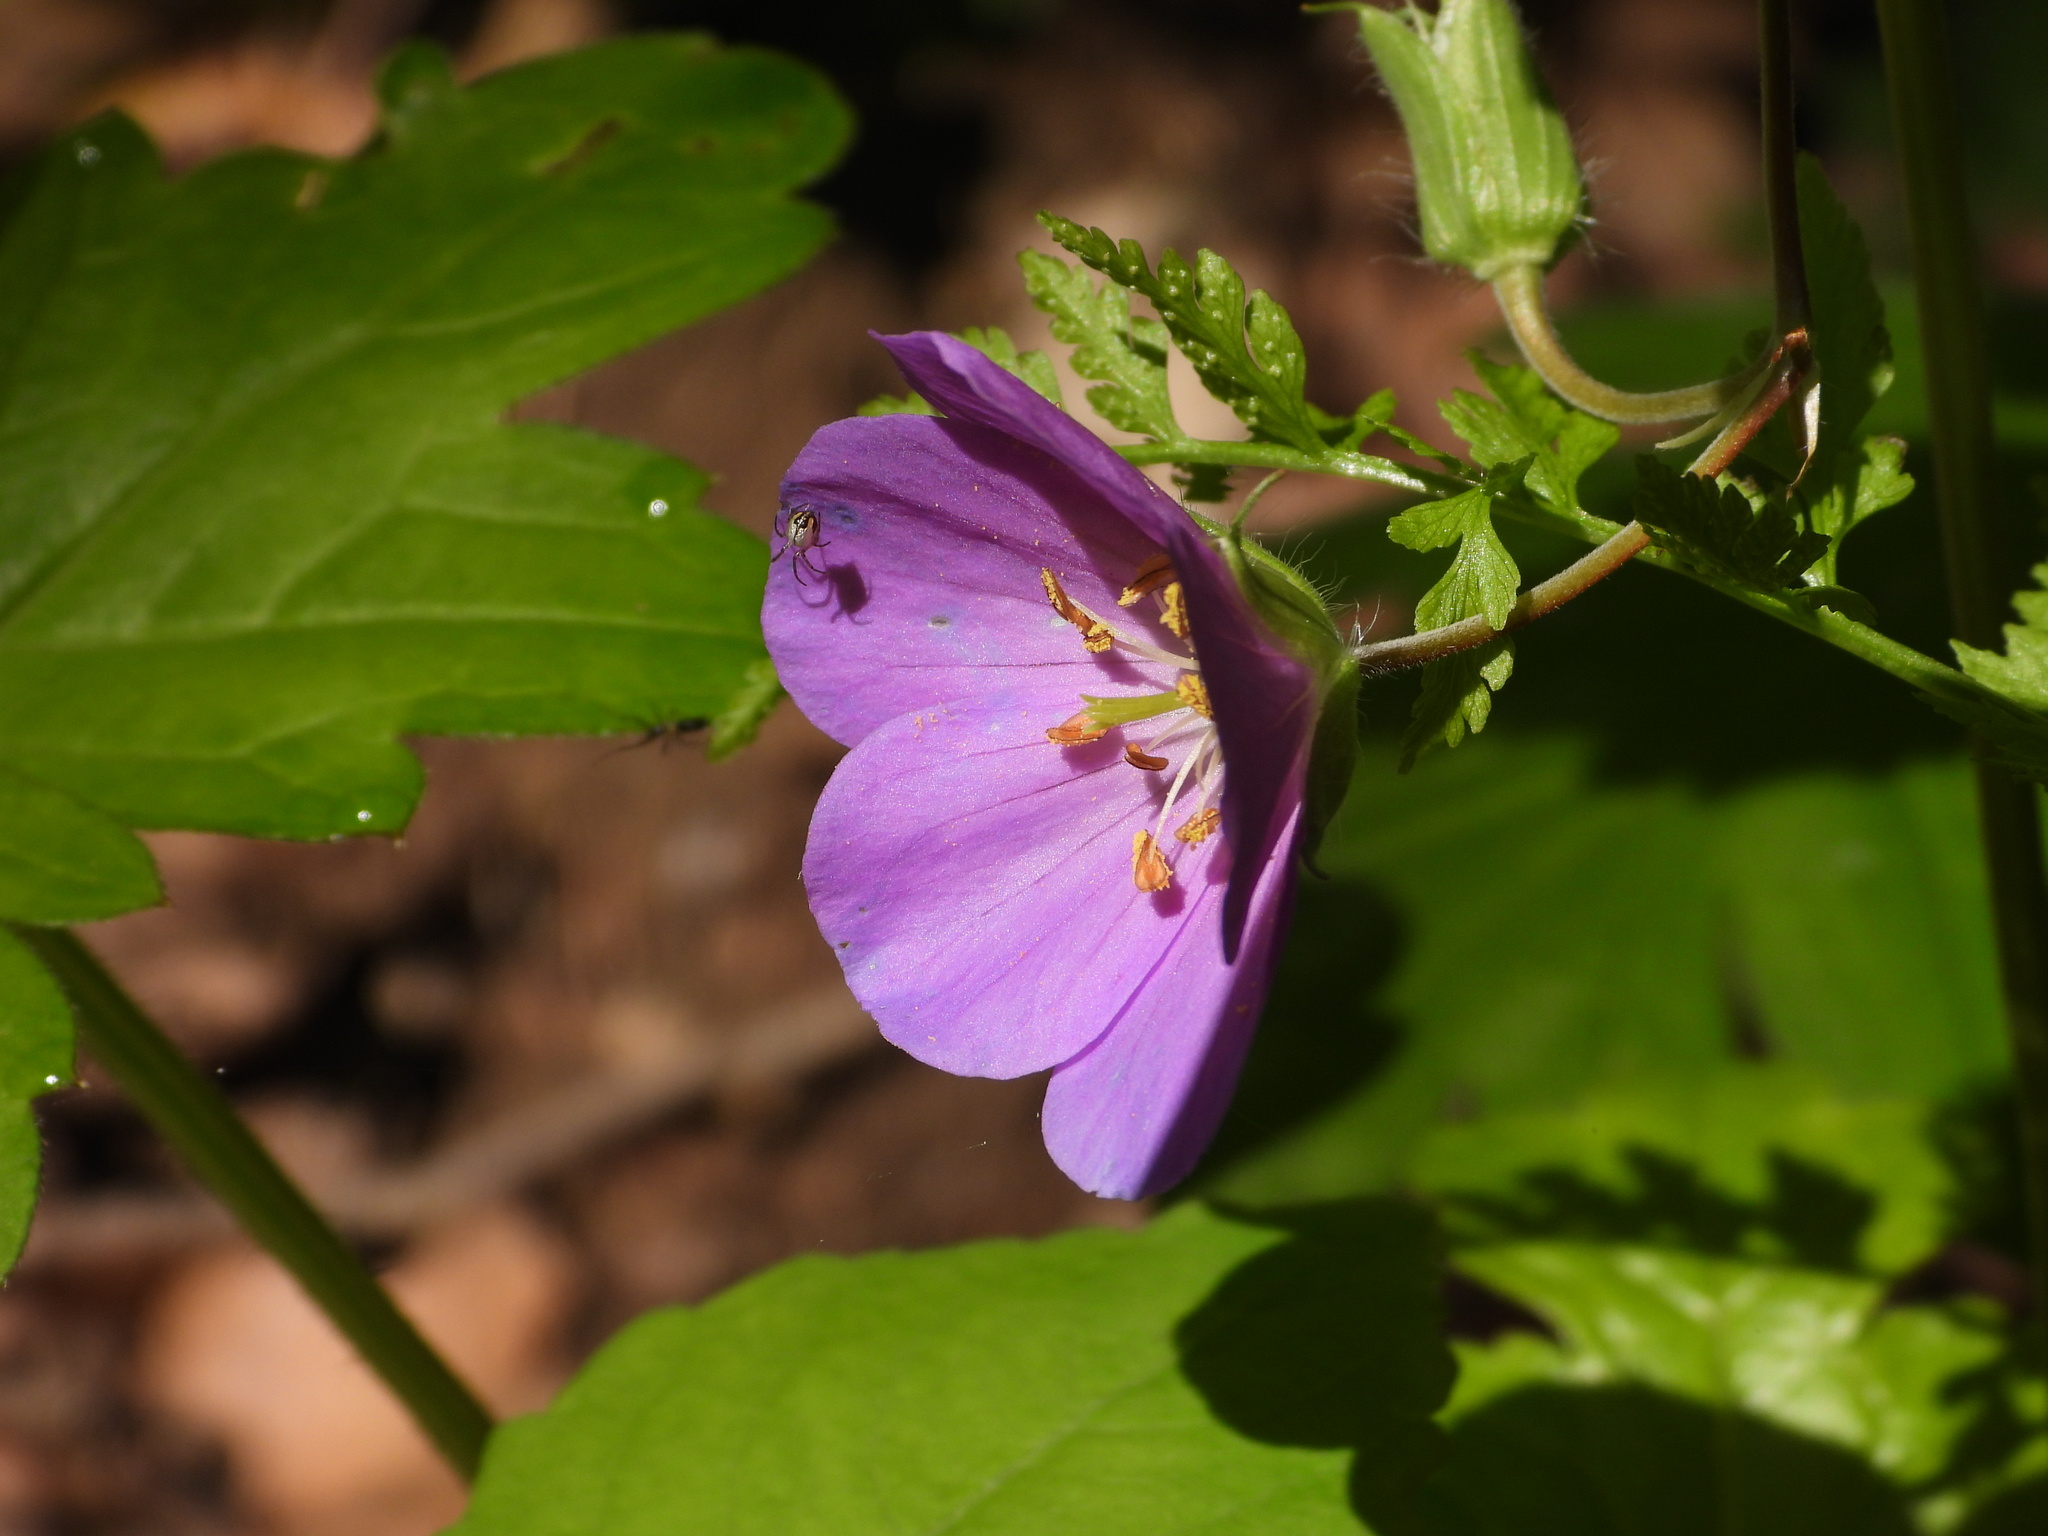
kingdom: Plantae
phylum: Tracheophyta
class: Magnoliopsida
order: Geraniales
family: Geraniaceae
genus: Geranium
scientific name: Geranium maculatum
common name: Spotted geranium
